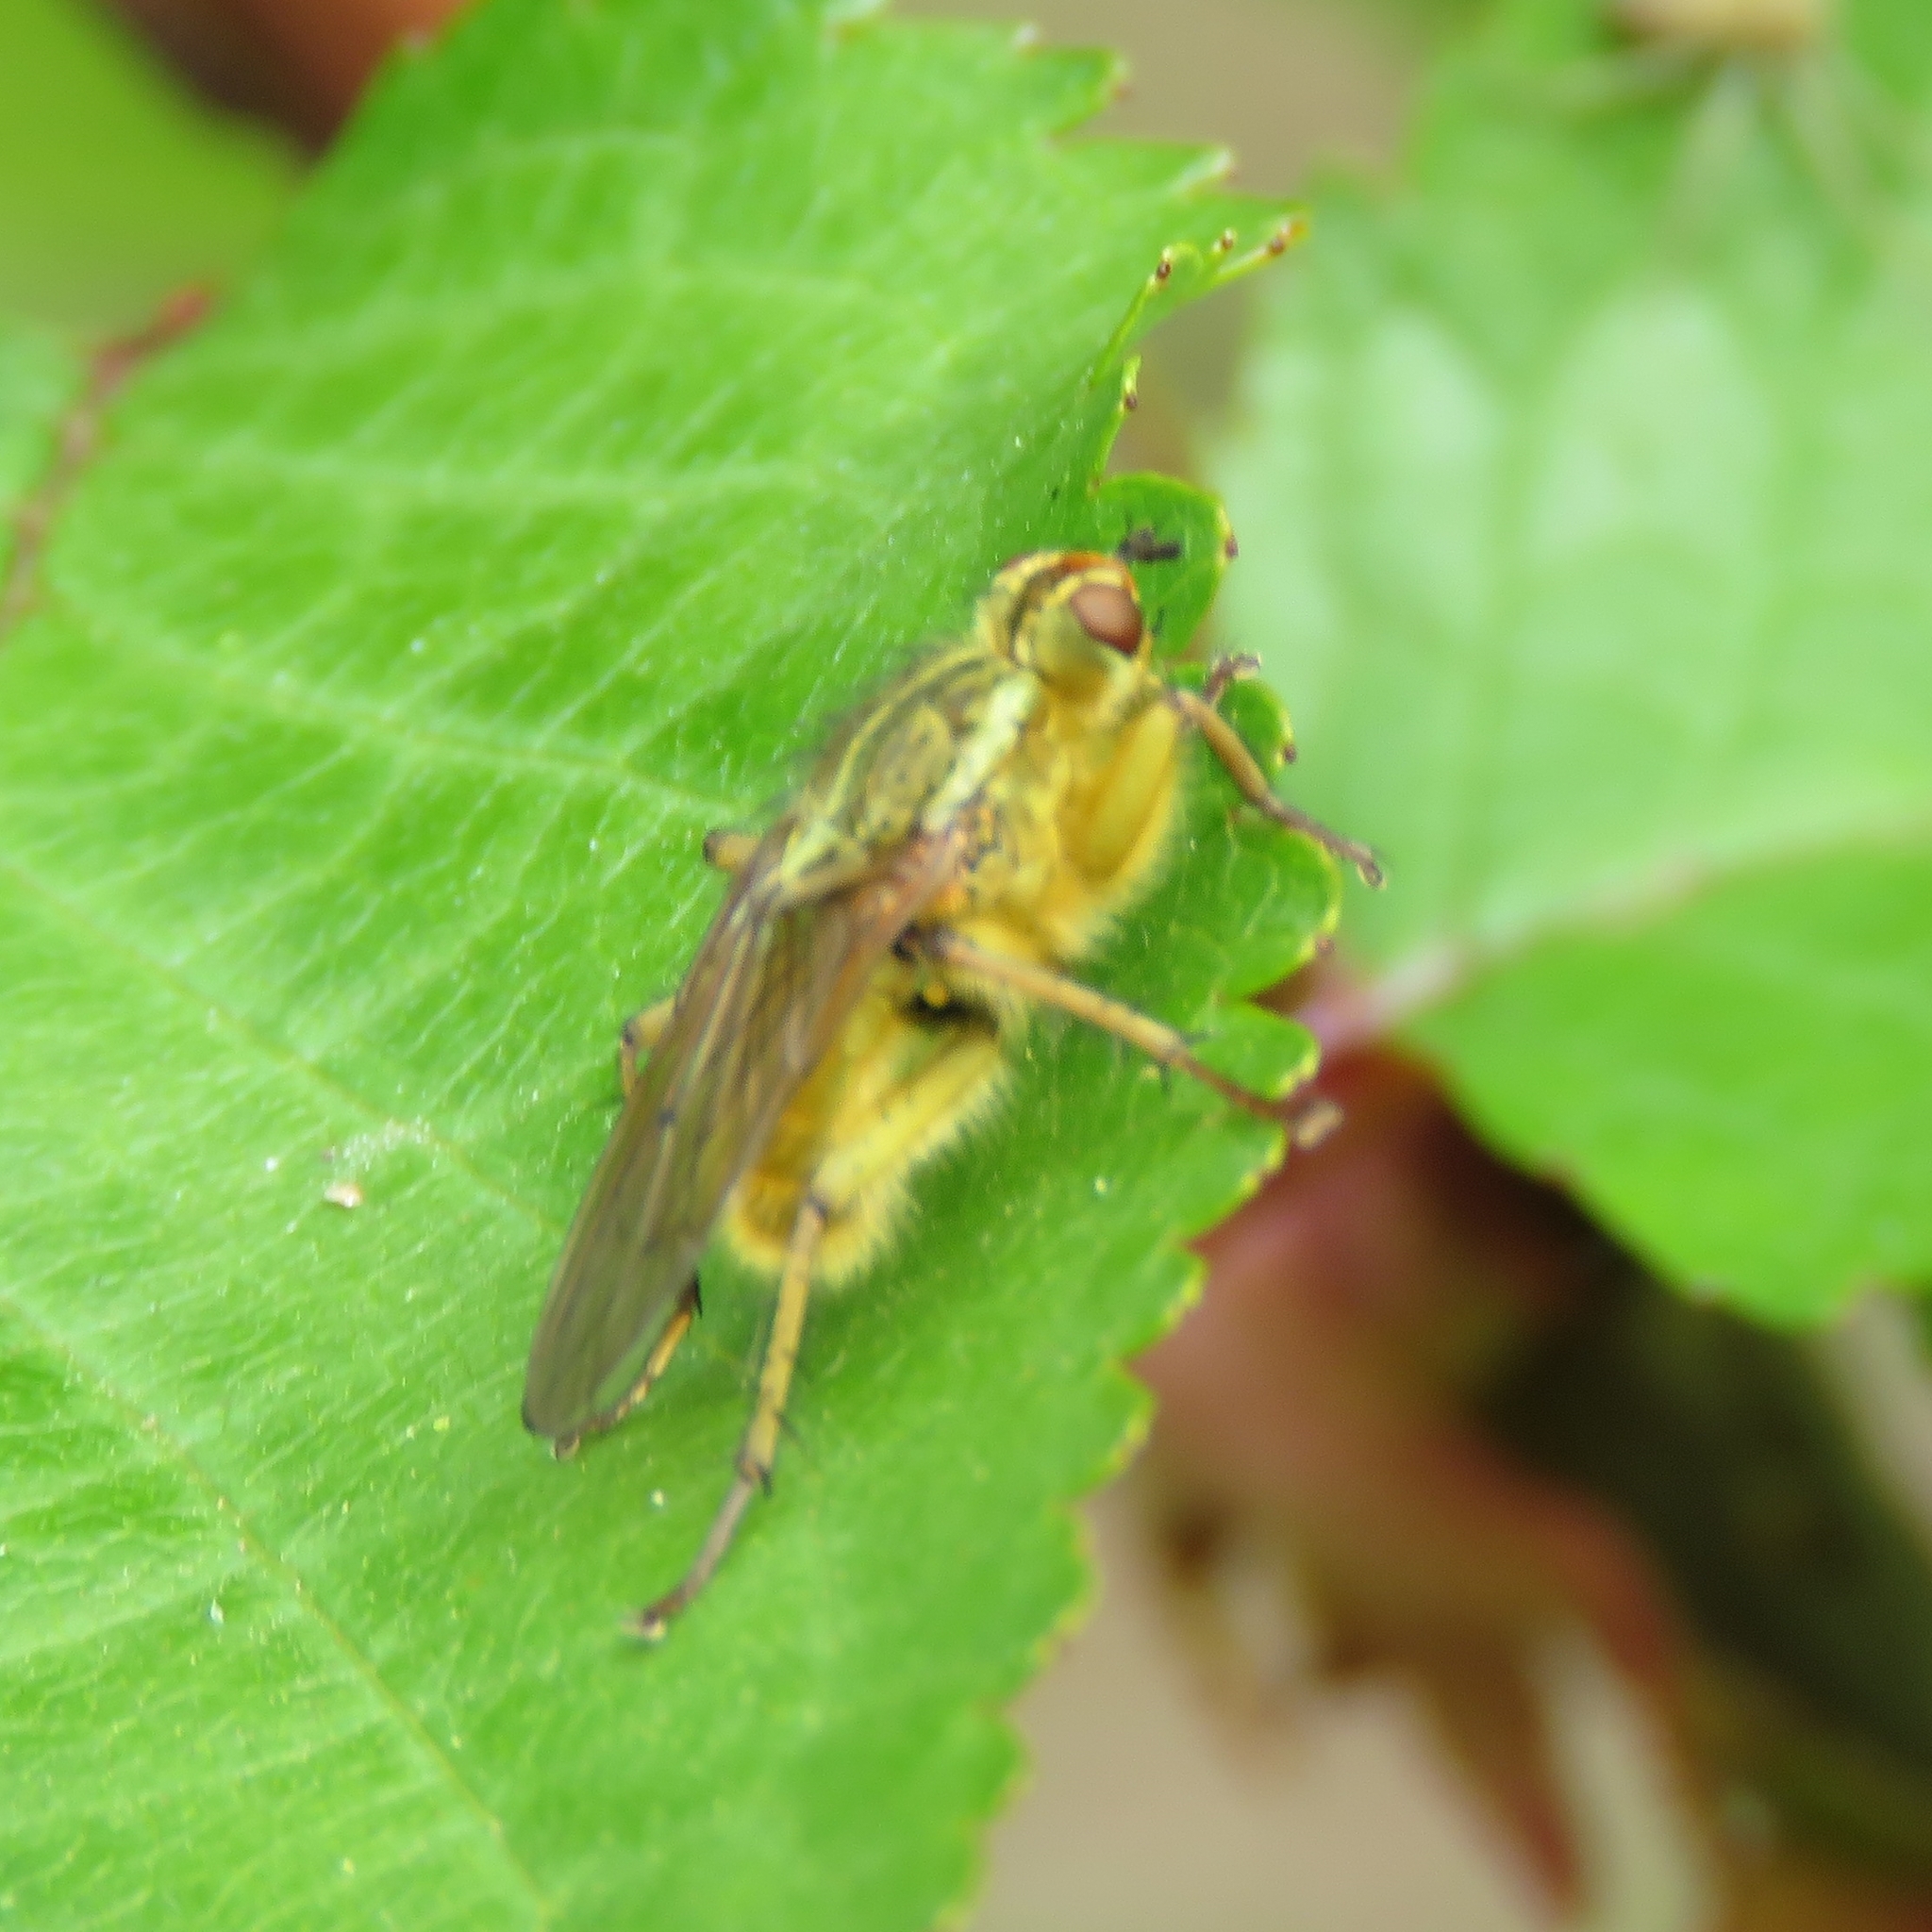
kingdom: Animalia
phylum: Arthropoda
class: Insecta
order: Diptera
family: Scathophagidae
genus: Scathophaga
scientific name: Scathophaga stercoraria
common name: Yellow dung fly
